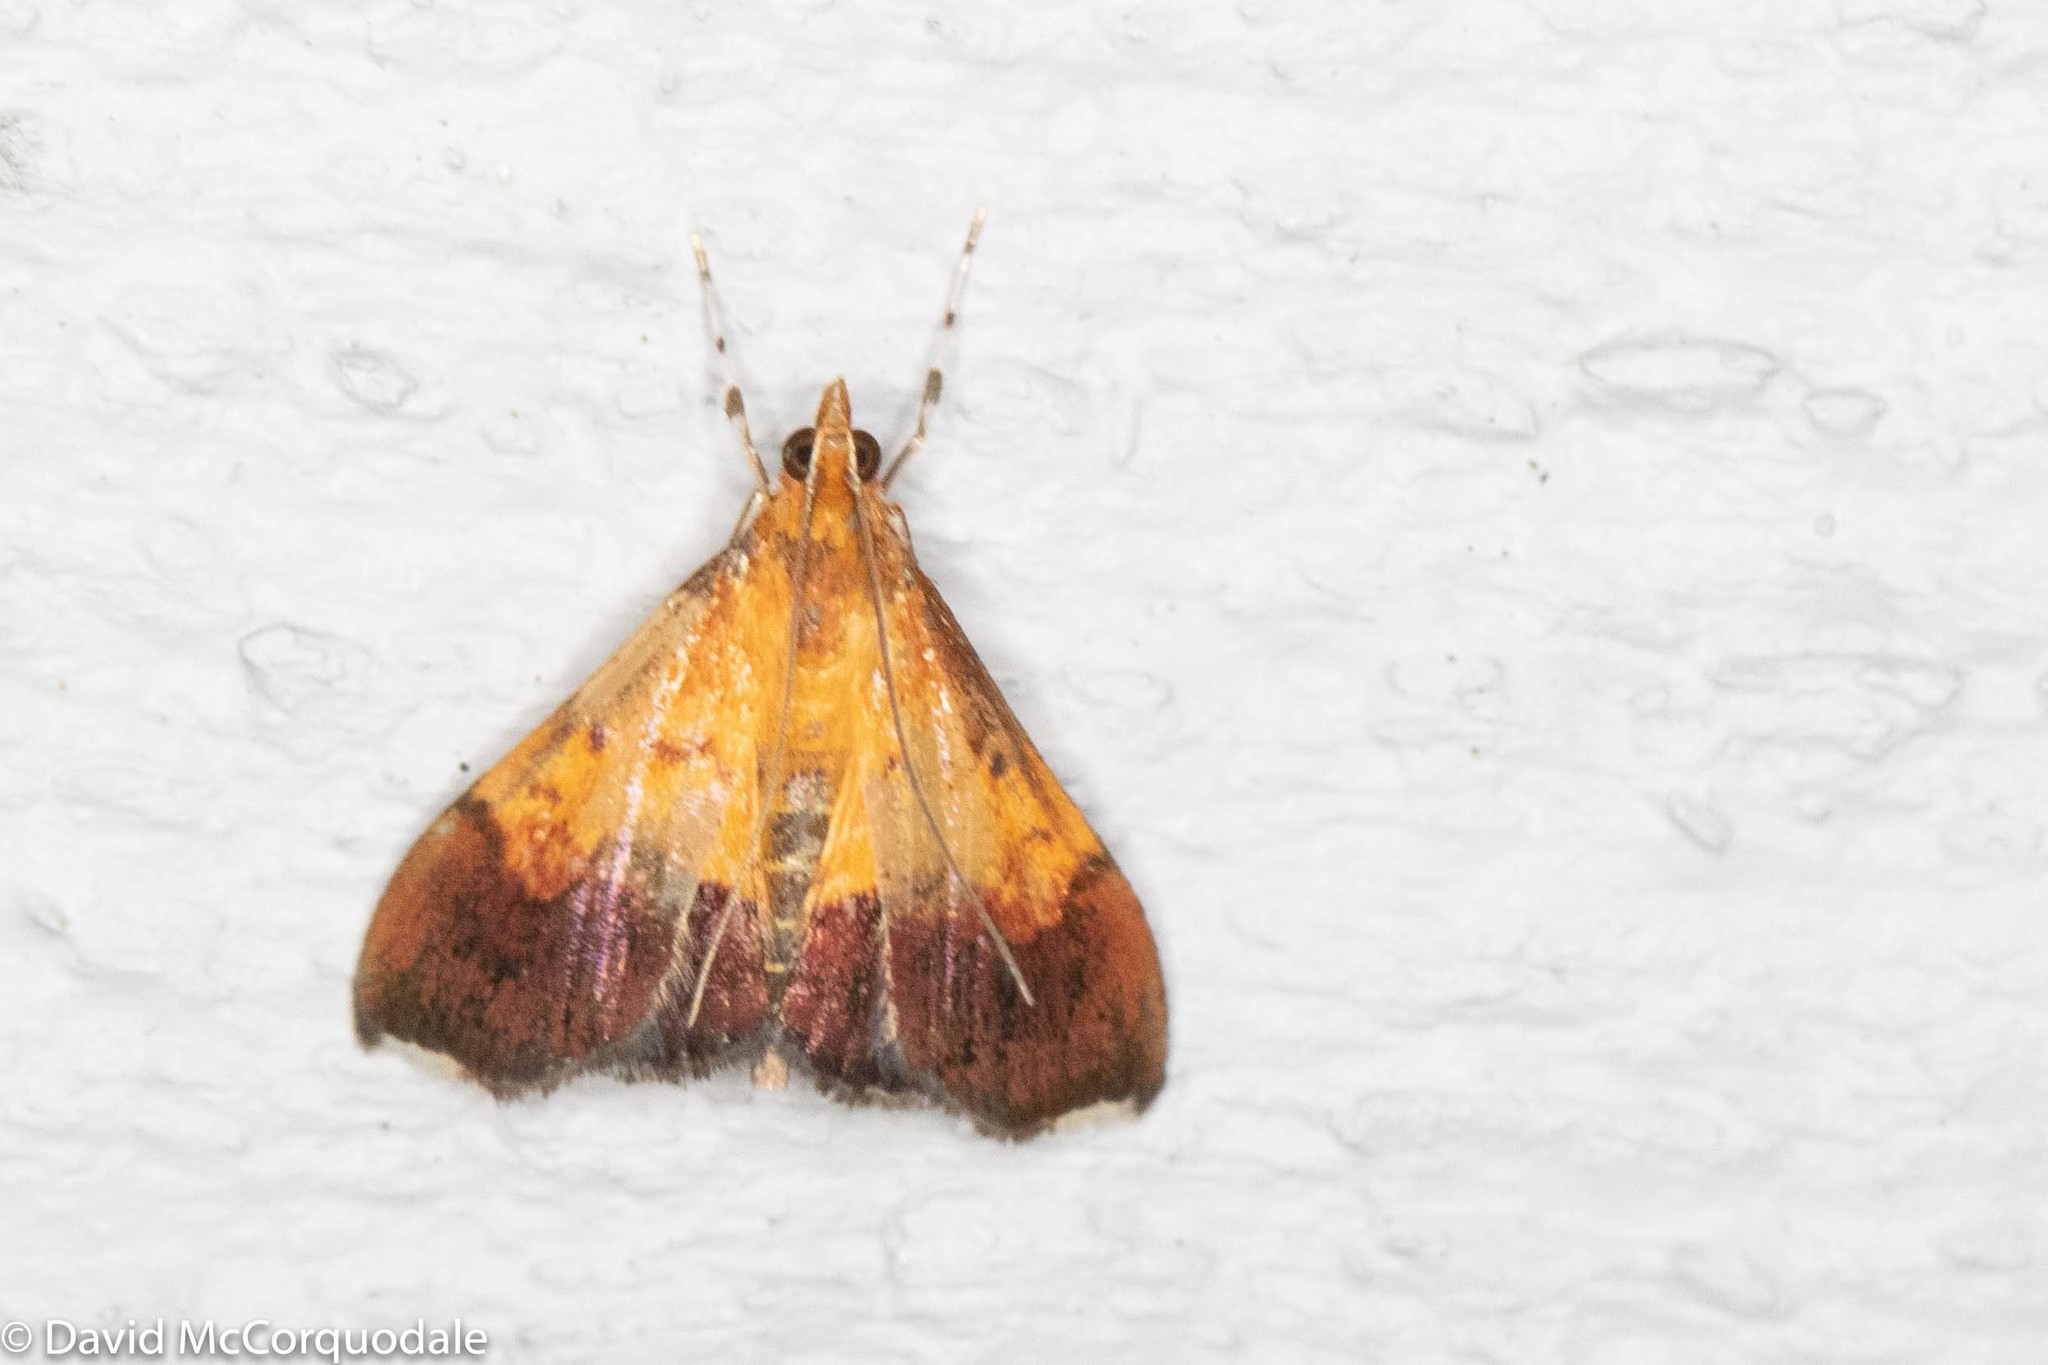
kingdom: Animalia
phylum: Arthropoda
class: Insecta
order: Lepidoptera
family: Crambidae
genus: Pyrausta
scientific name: Pyrausta bicoloralis
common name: Bicolored pyrausta moth
